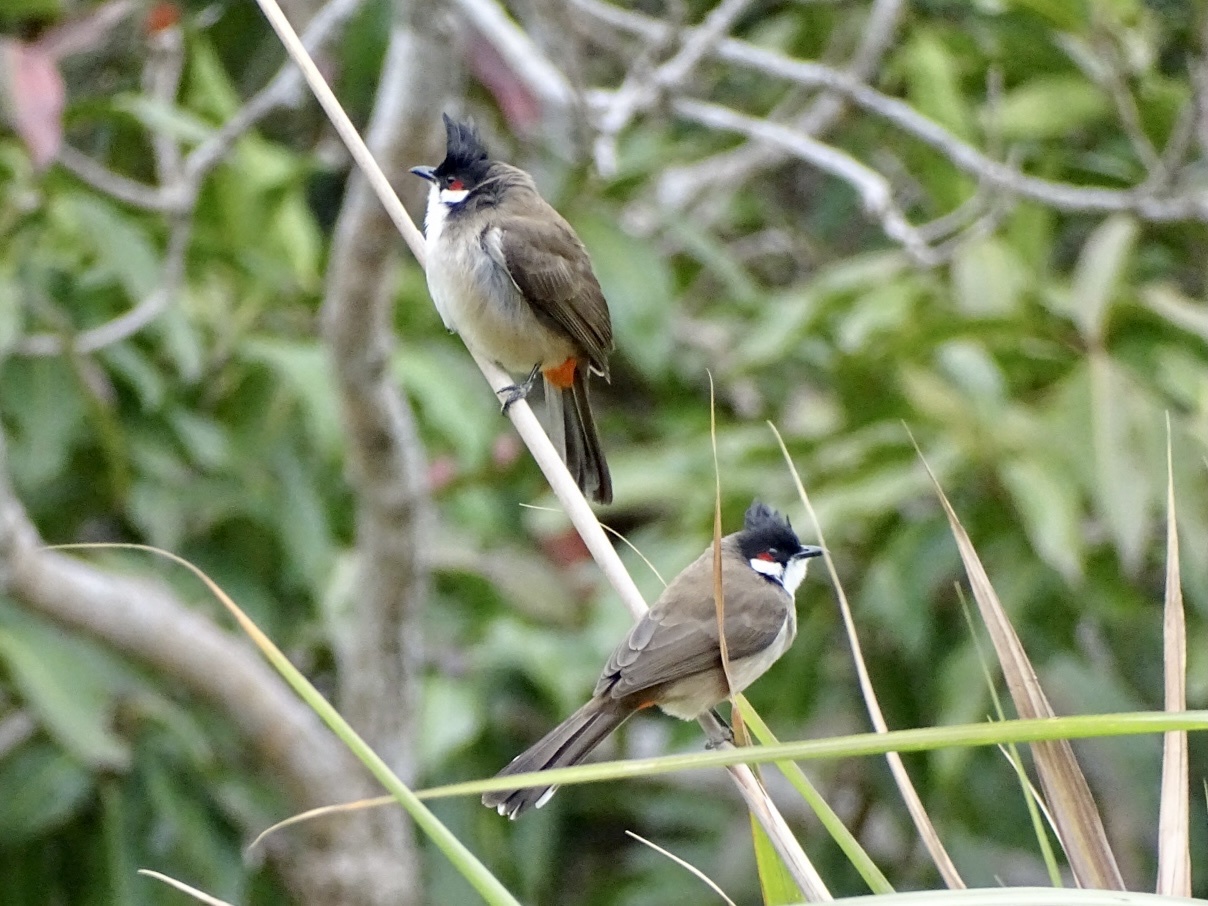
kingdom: Animalia
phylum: Chordata
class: Aves
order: Passeriformes
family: Pycnonotidae
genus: Pycnonotus
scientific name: Pycnonotus jocosus
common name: Red-whiskered bulbul
